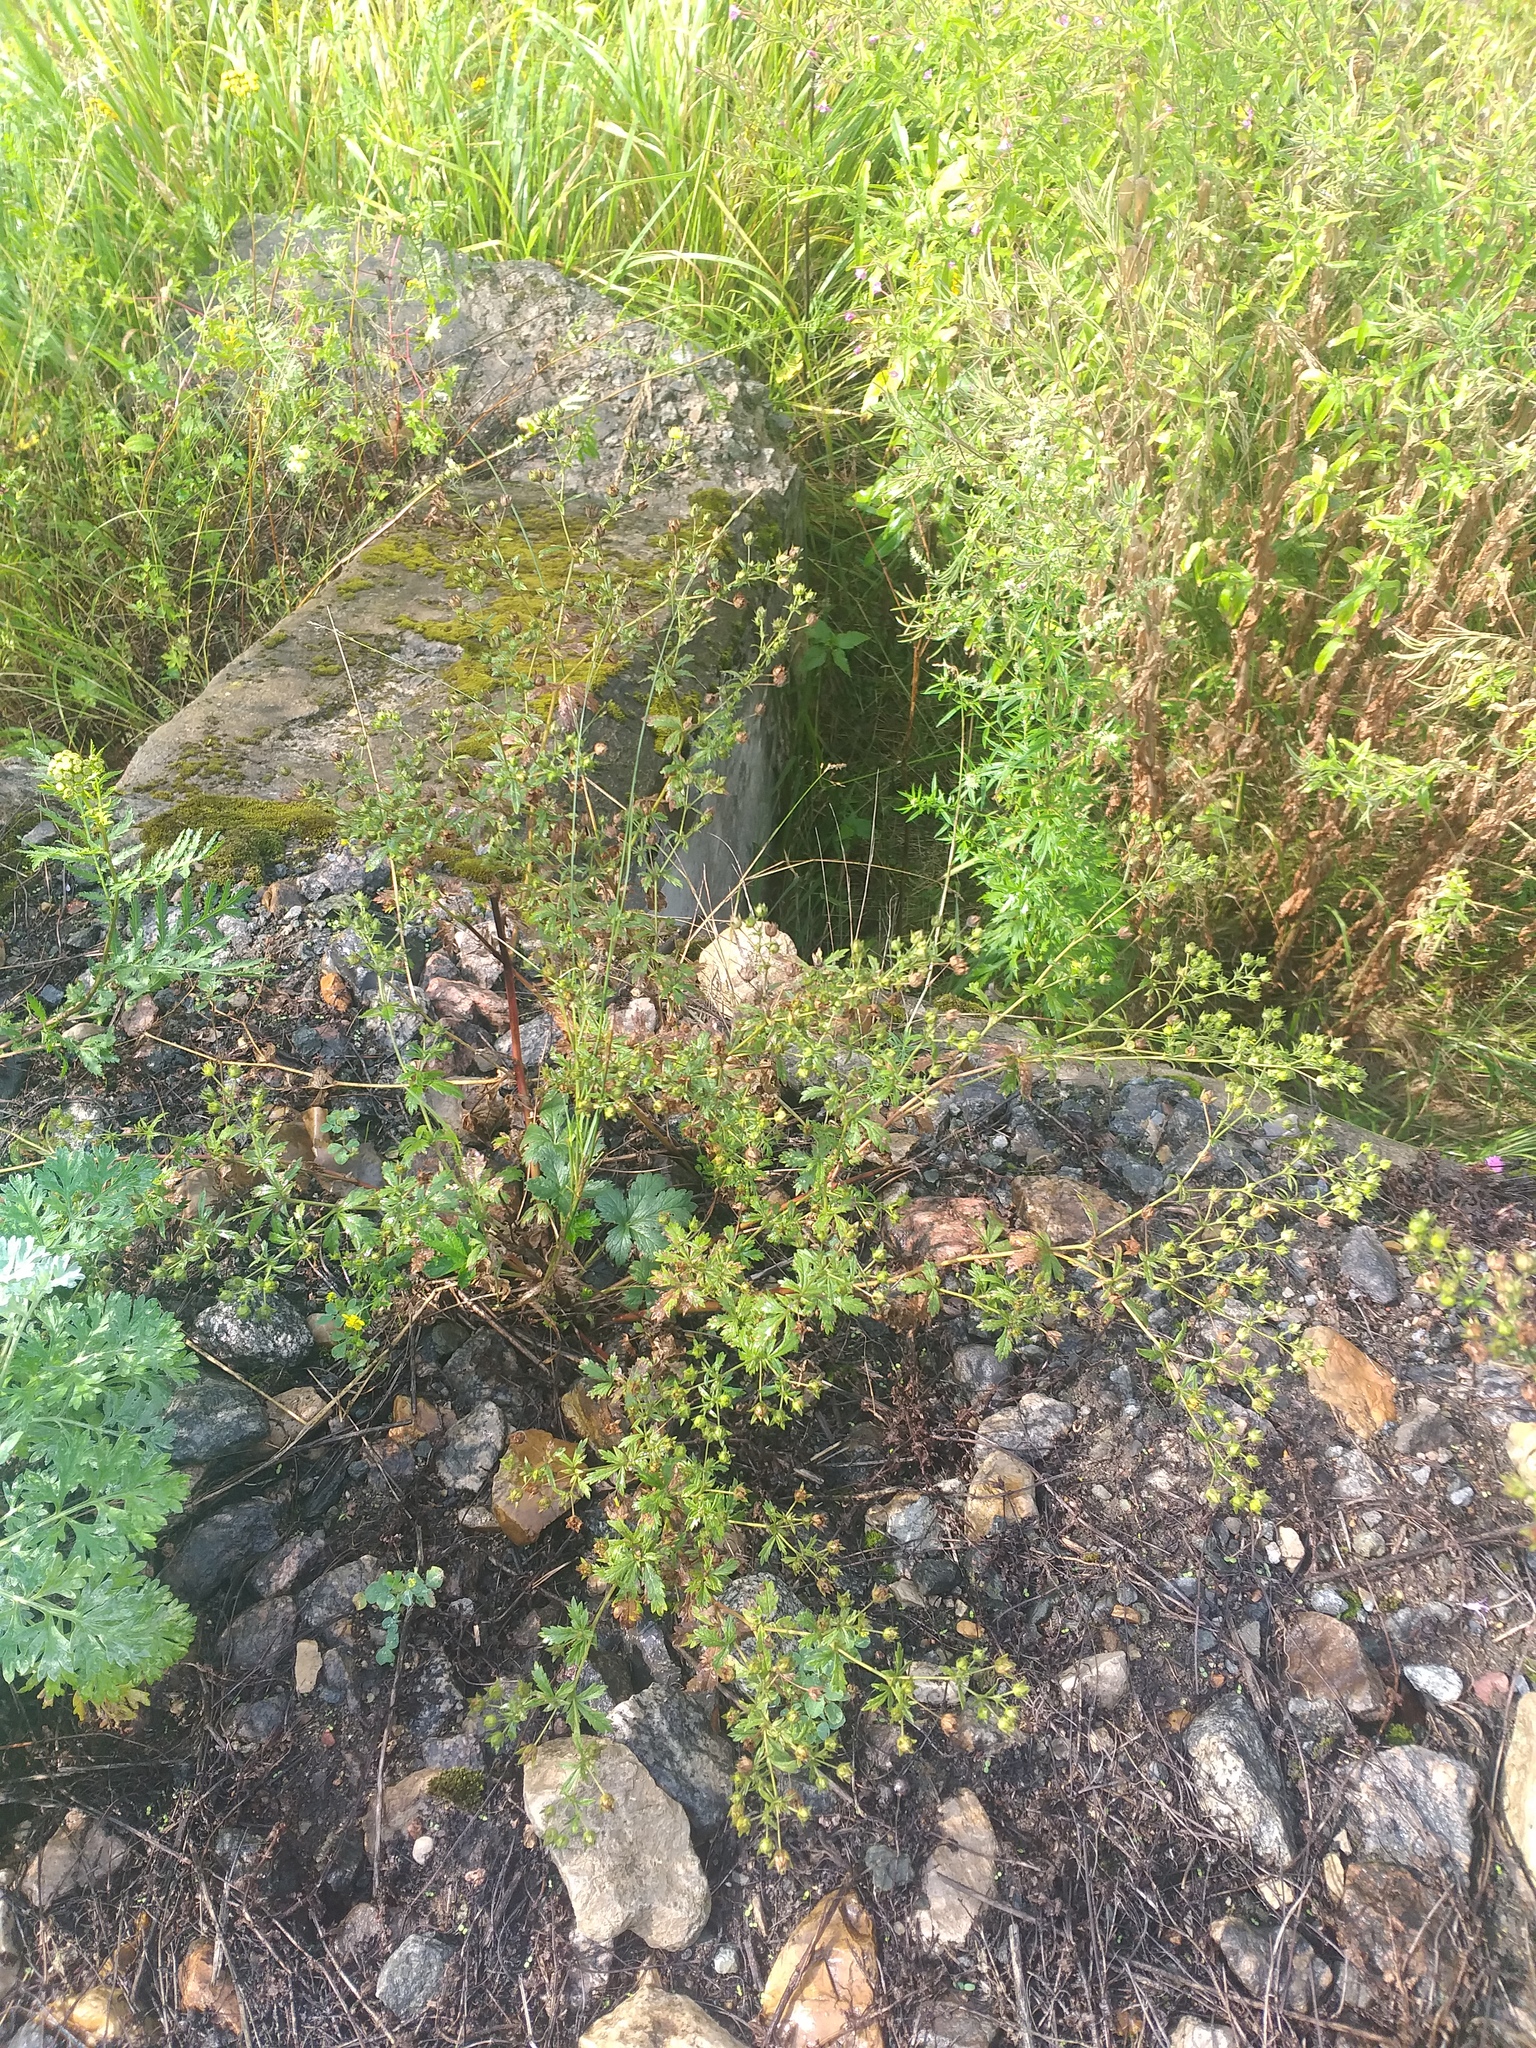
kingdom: Plantae
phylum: Tracheophyta
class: Magnoliopsida
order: Rosales
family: Rosaceae
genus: Potentilla
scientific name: Potentilla intermedia
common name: Downy cinquefoil
